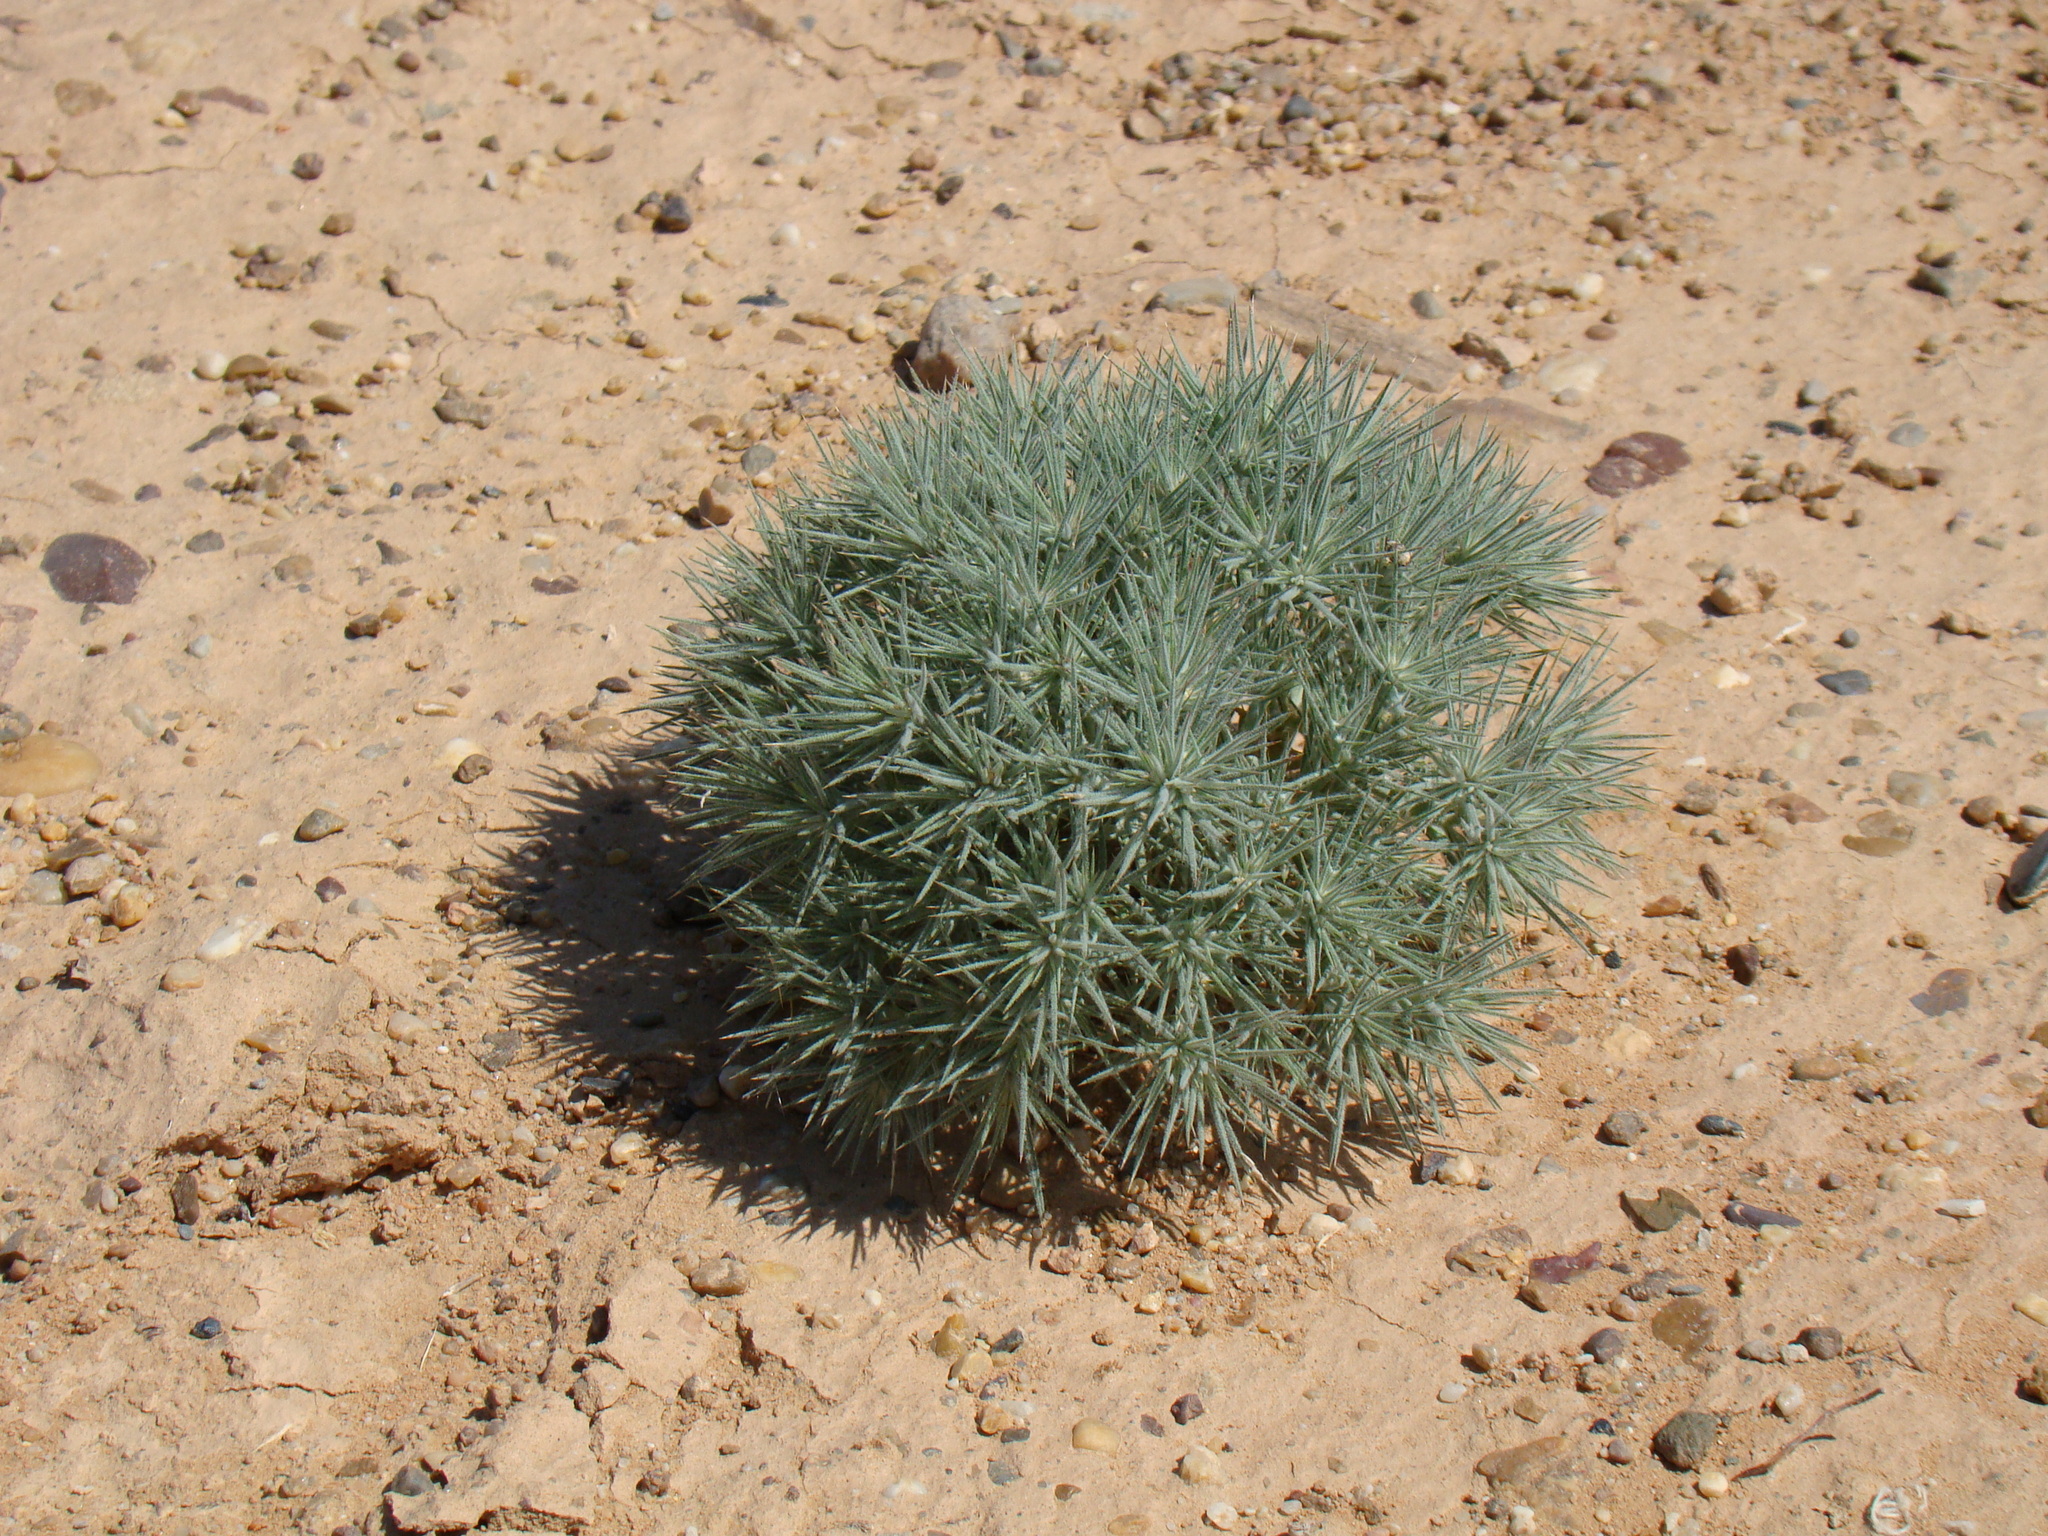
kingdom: Plantae
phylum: Tracheophyta
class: Magnoliopsida
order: Caryophyllales
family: Amaranthaceae
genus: Ceratocarpus
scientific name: Ceratocarpus arenarius
